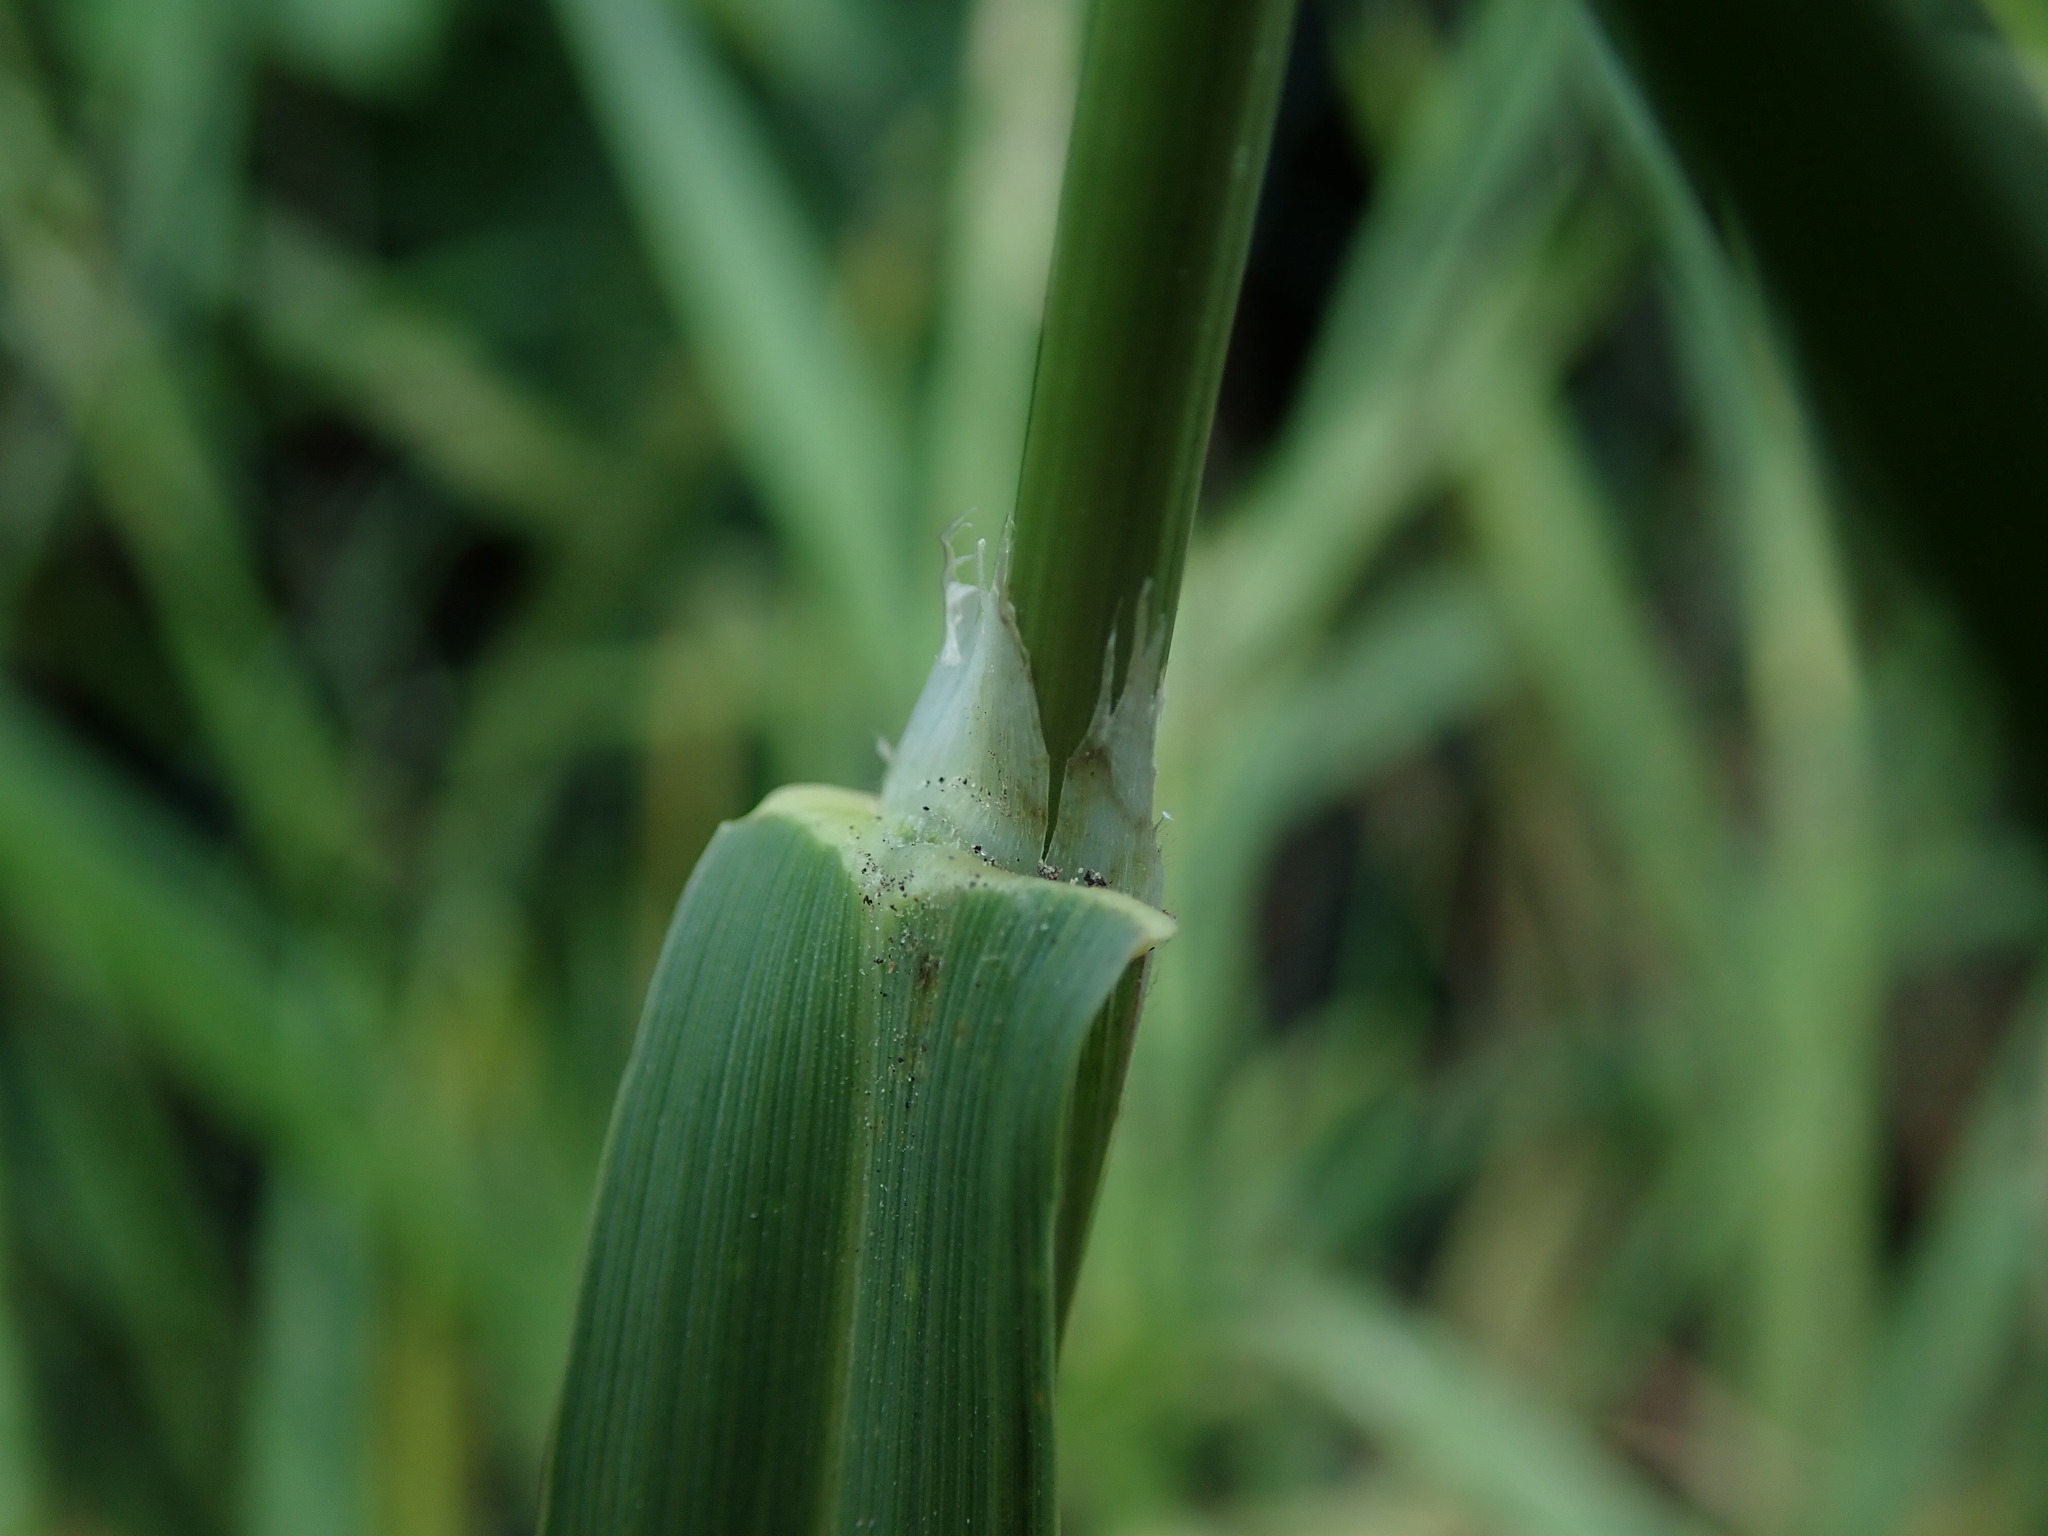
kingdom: Plantae
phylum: Tracheophyta
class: Liliopsida
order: Poales
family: Poaceae
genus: Bromus
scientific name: Bromus catharticus
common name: Rescuegrass
